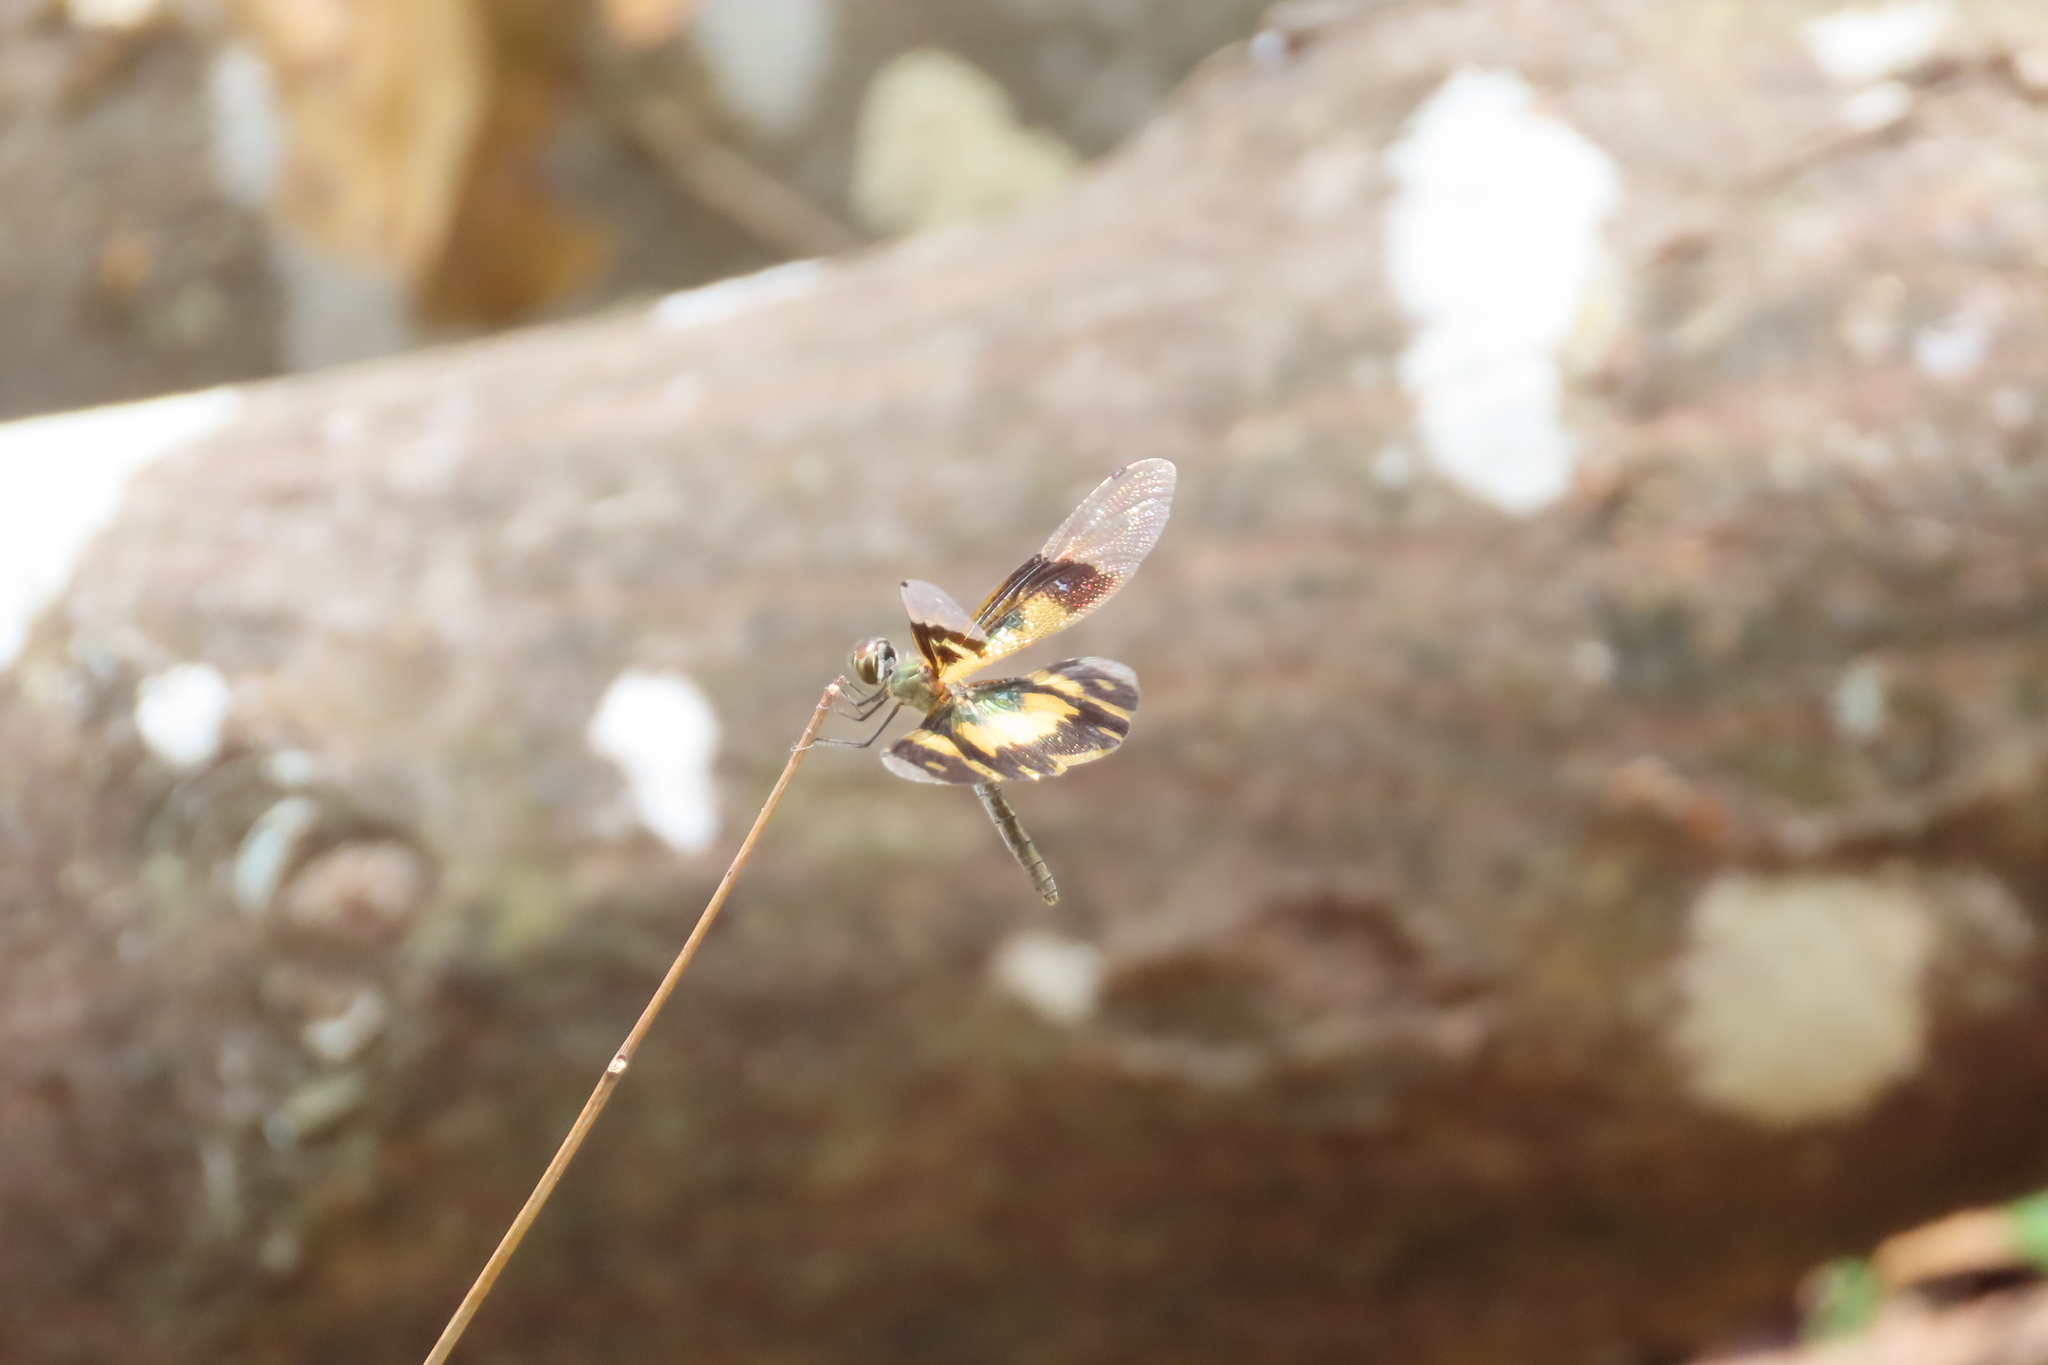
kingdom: Animalia
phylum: Arthropoda
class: Insecta
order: Odonata
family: Libellulidae
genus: Rhyothemis
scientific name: Rhyothemis variegata
